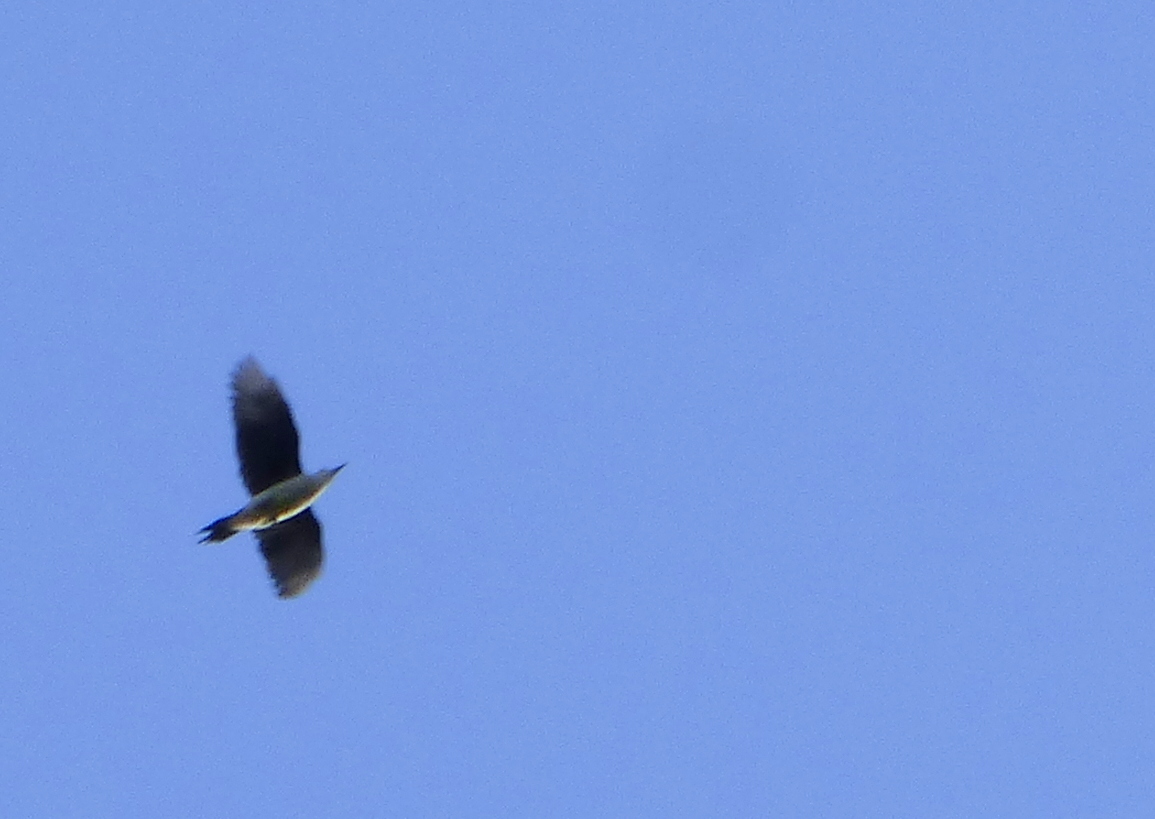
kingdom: Animalia
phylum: Chordata
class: Aves
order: Piciformes
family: Picidae
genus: Melanerpes
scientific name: Melanerpes candidus
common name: White woodpecker
